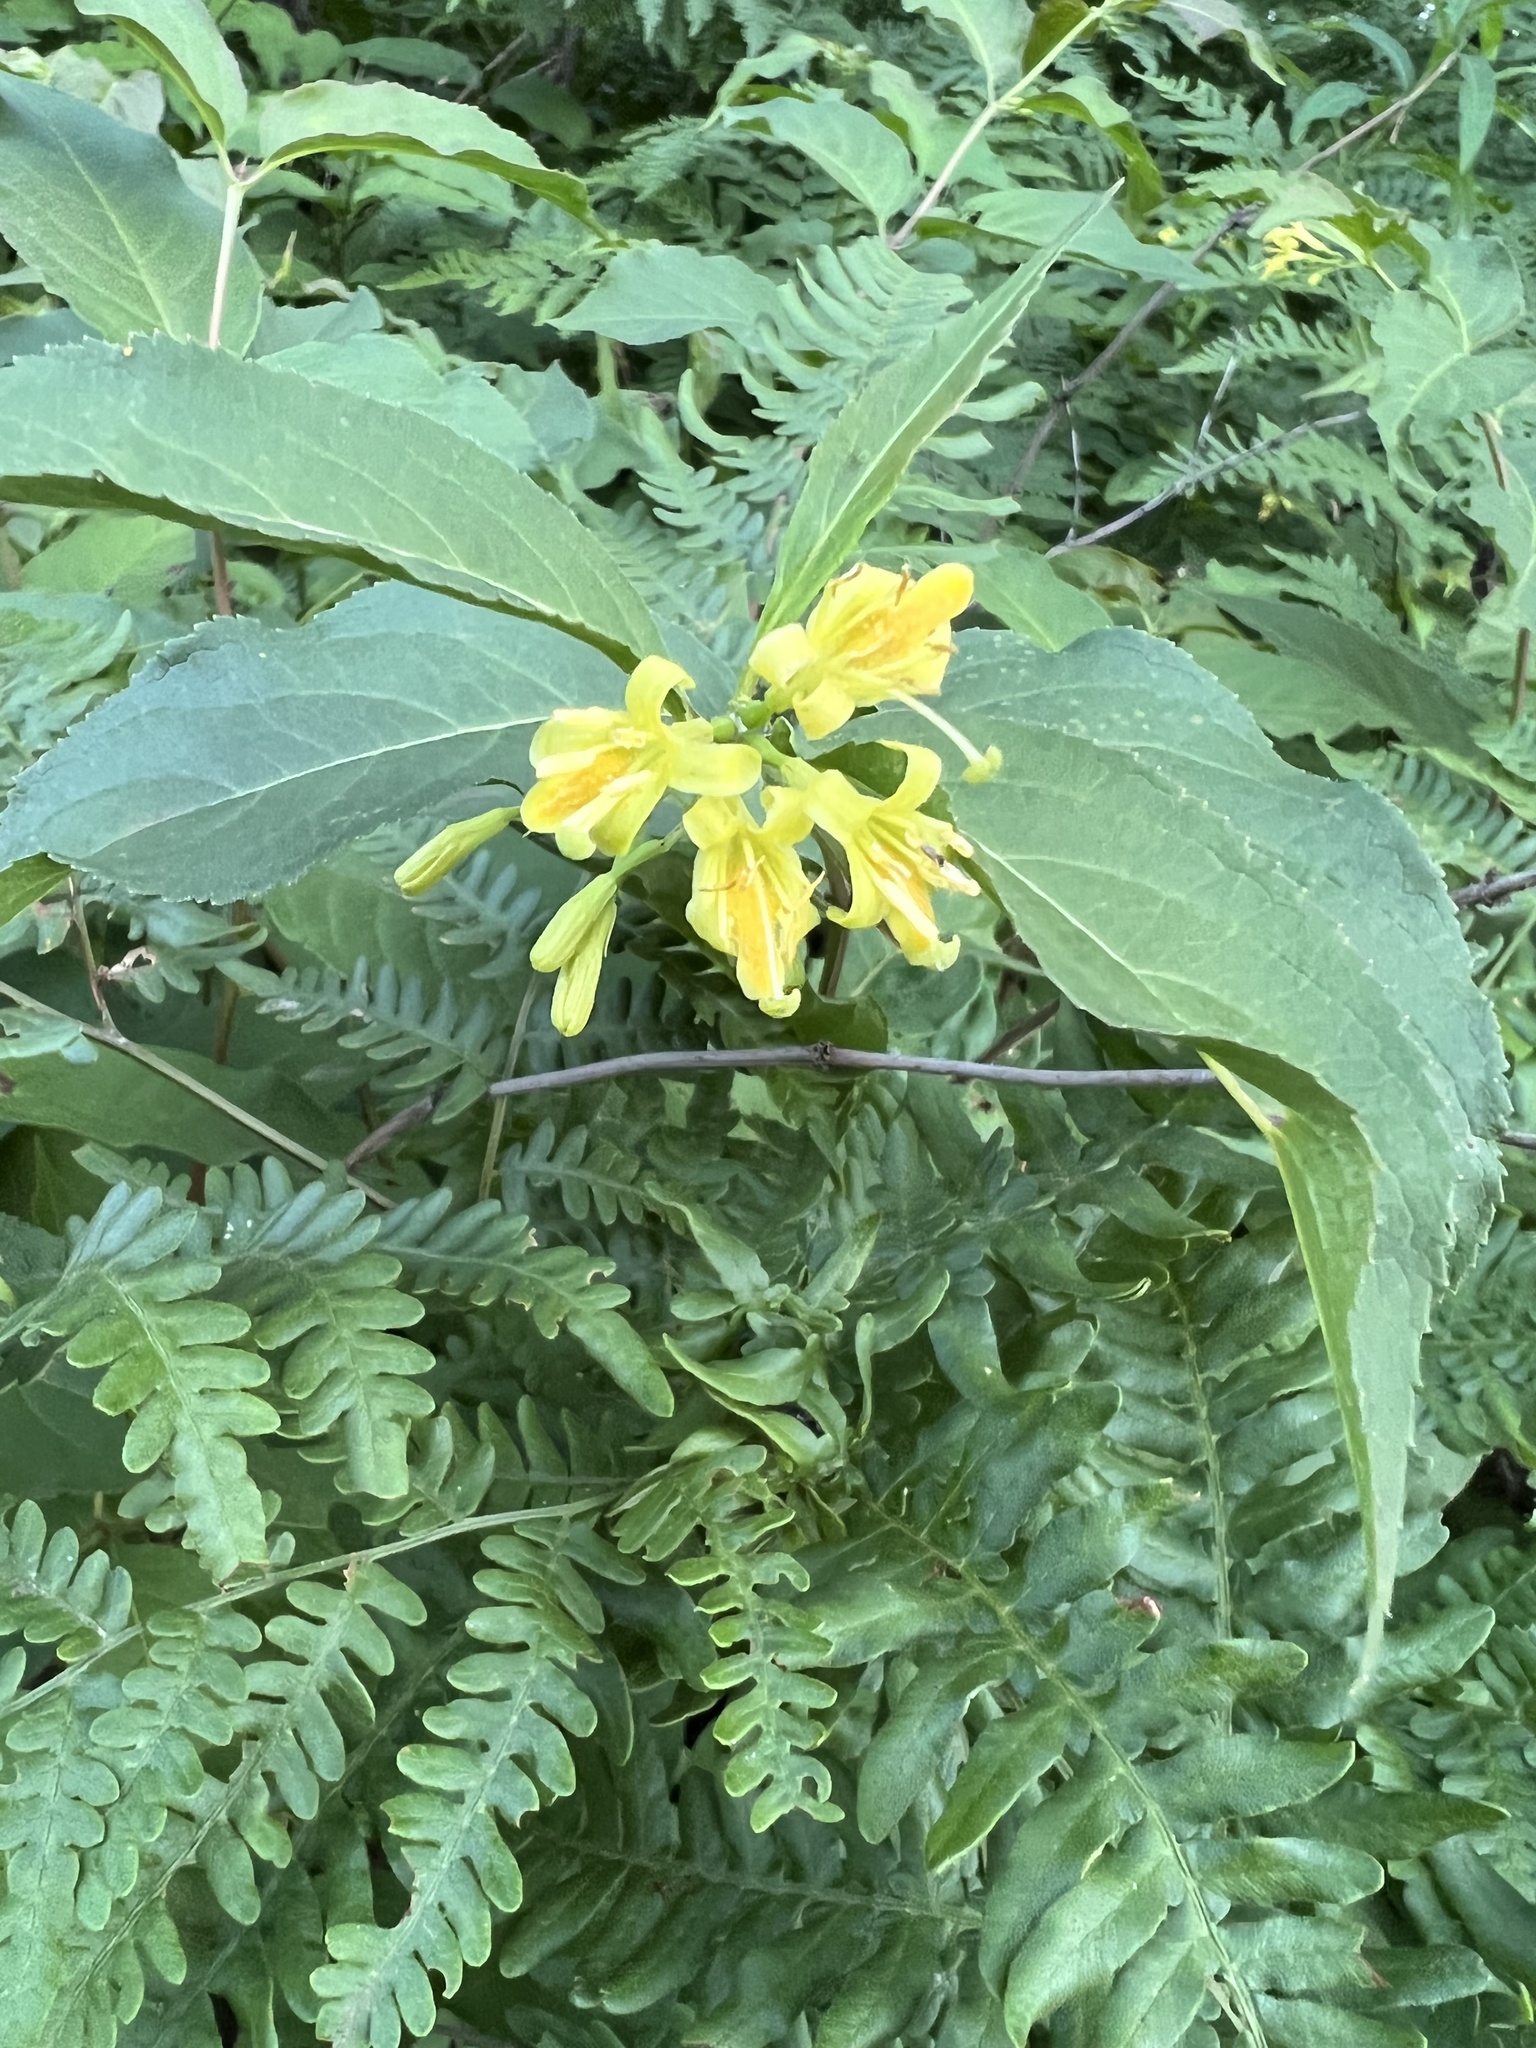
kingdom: Plantae
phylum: Tracheophyta
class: Magnoliopsida
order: Dipsacales
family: Caprifoliaceae
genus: Diervilla
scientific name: Diervilla lonicera
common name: Bush-honeysuckle
